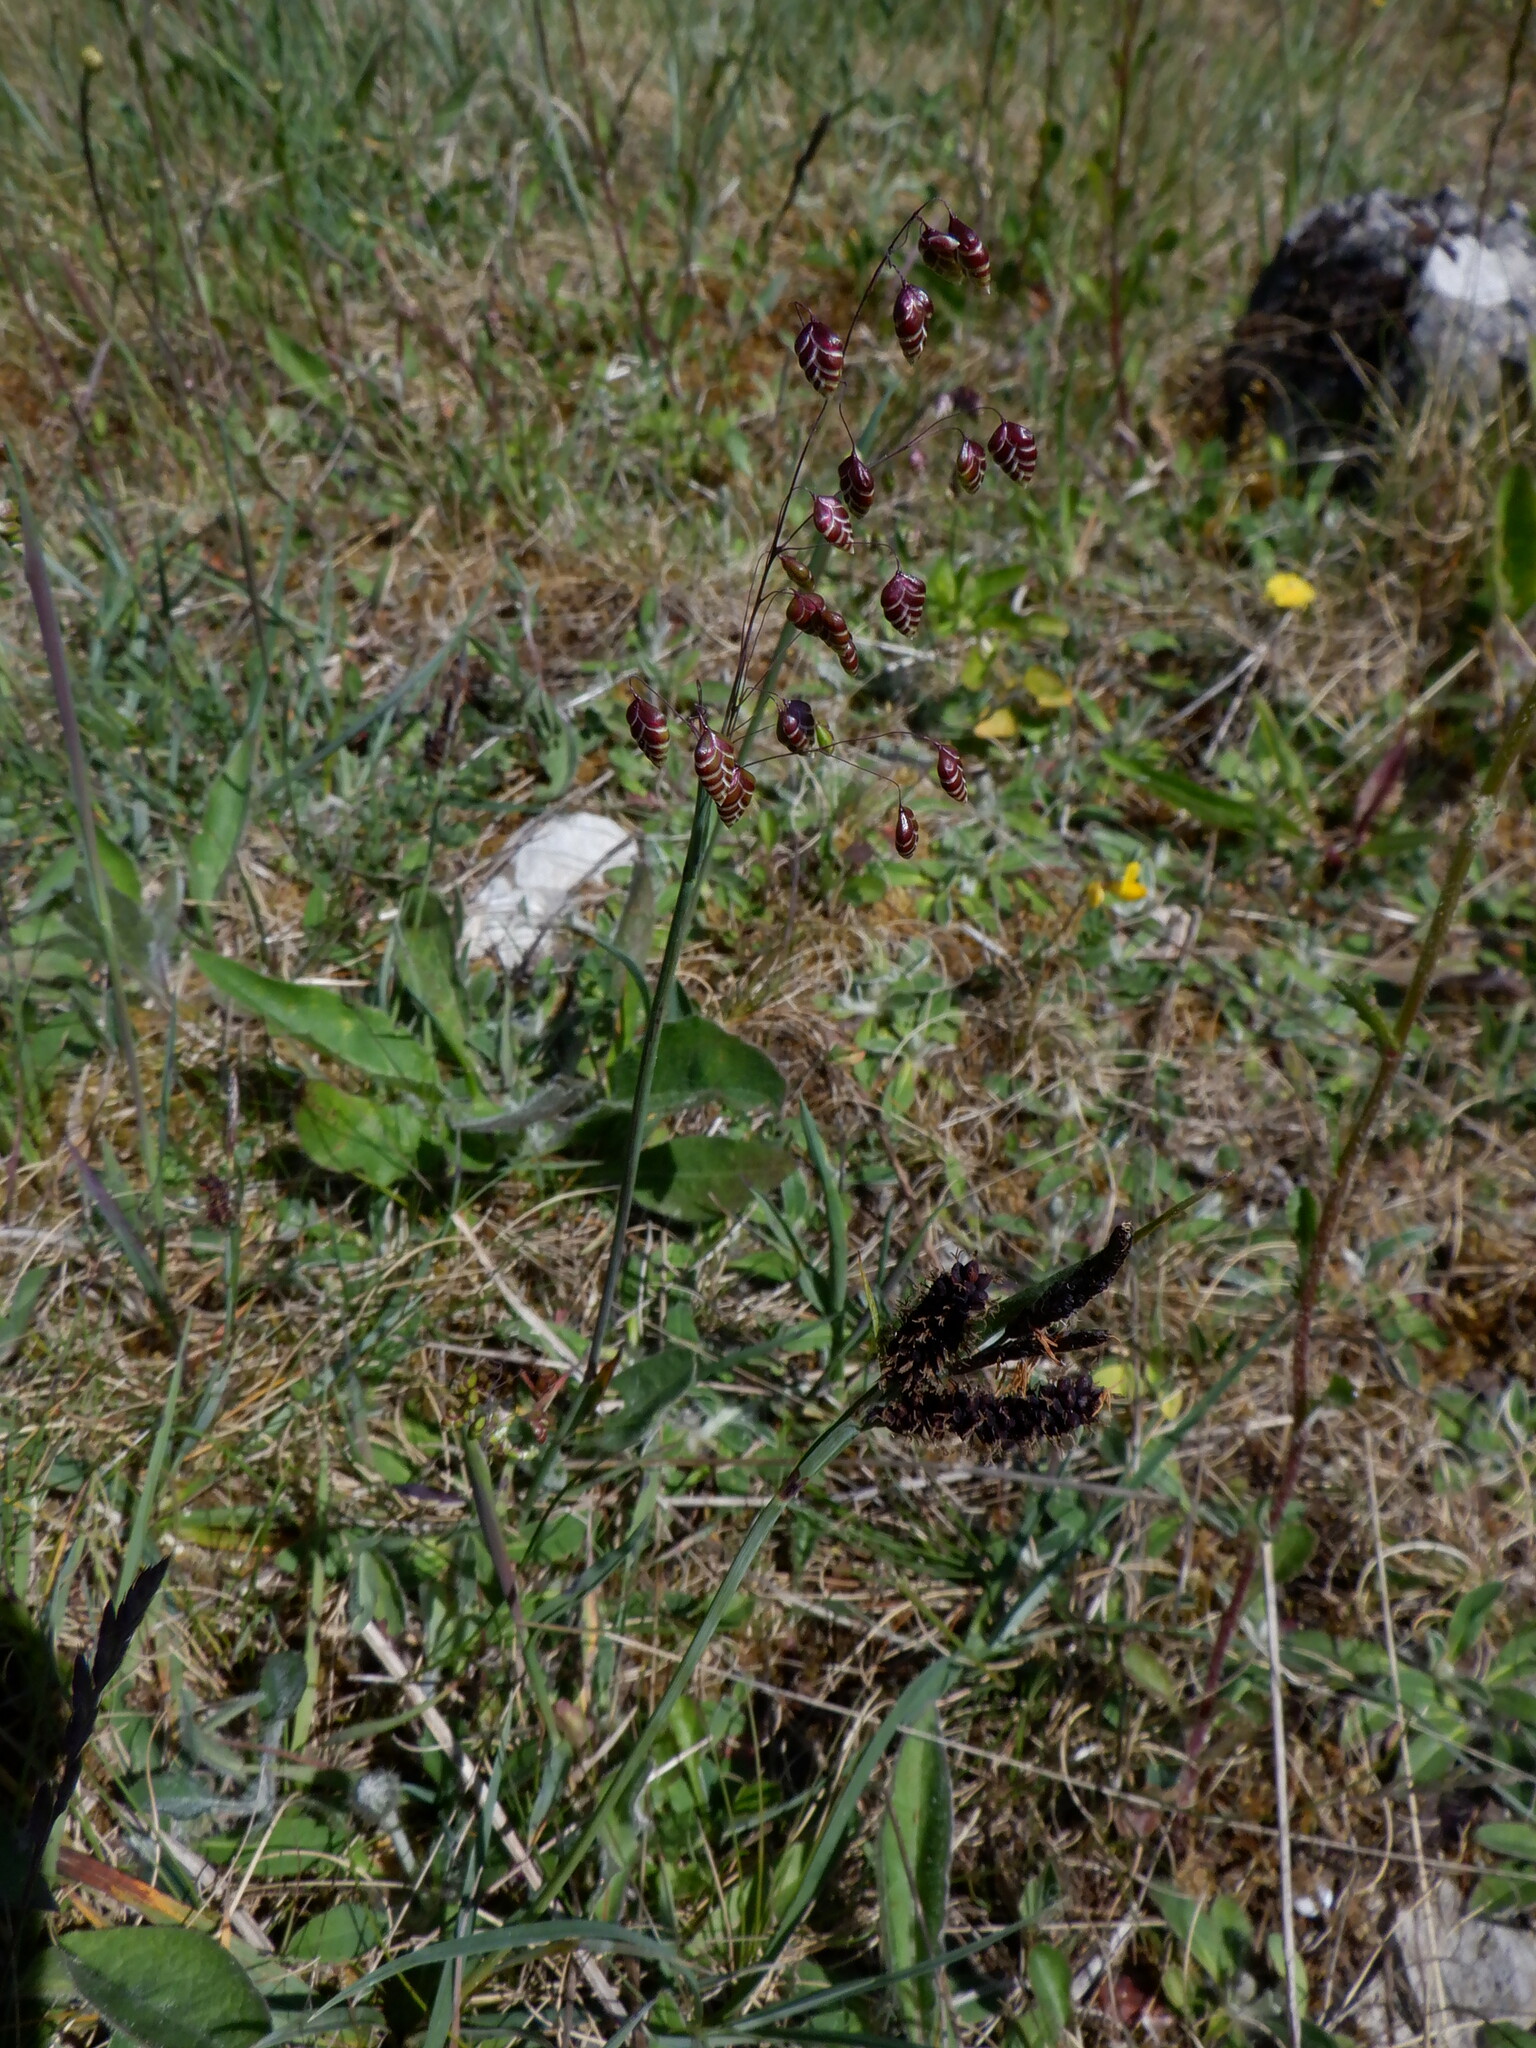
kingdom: Plantae
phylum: Tracheophyta
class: Liliopsida
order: Poales
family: Poaceae
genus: Briza
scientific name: Briza media
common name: Quaking grass
